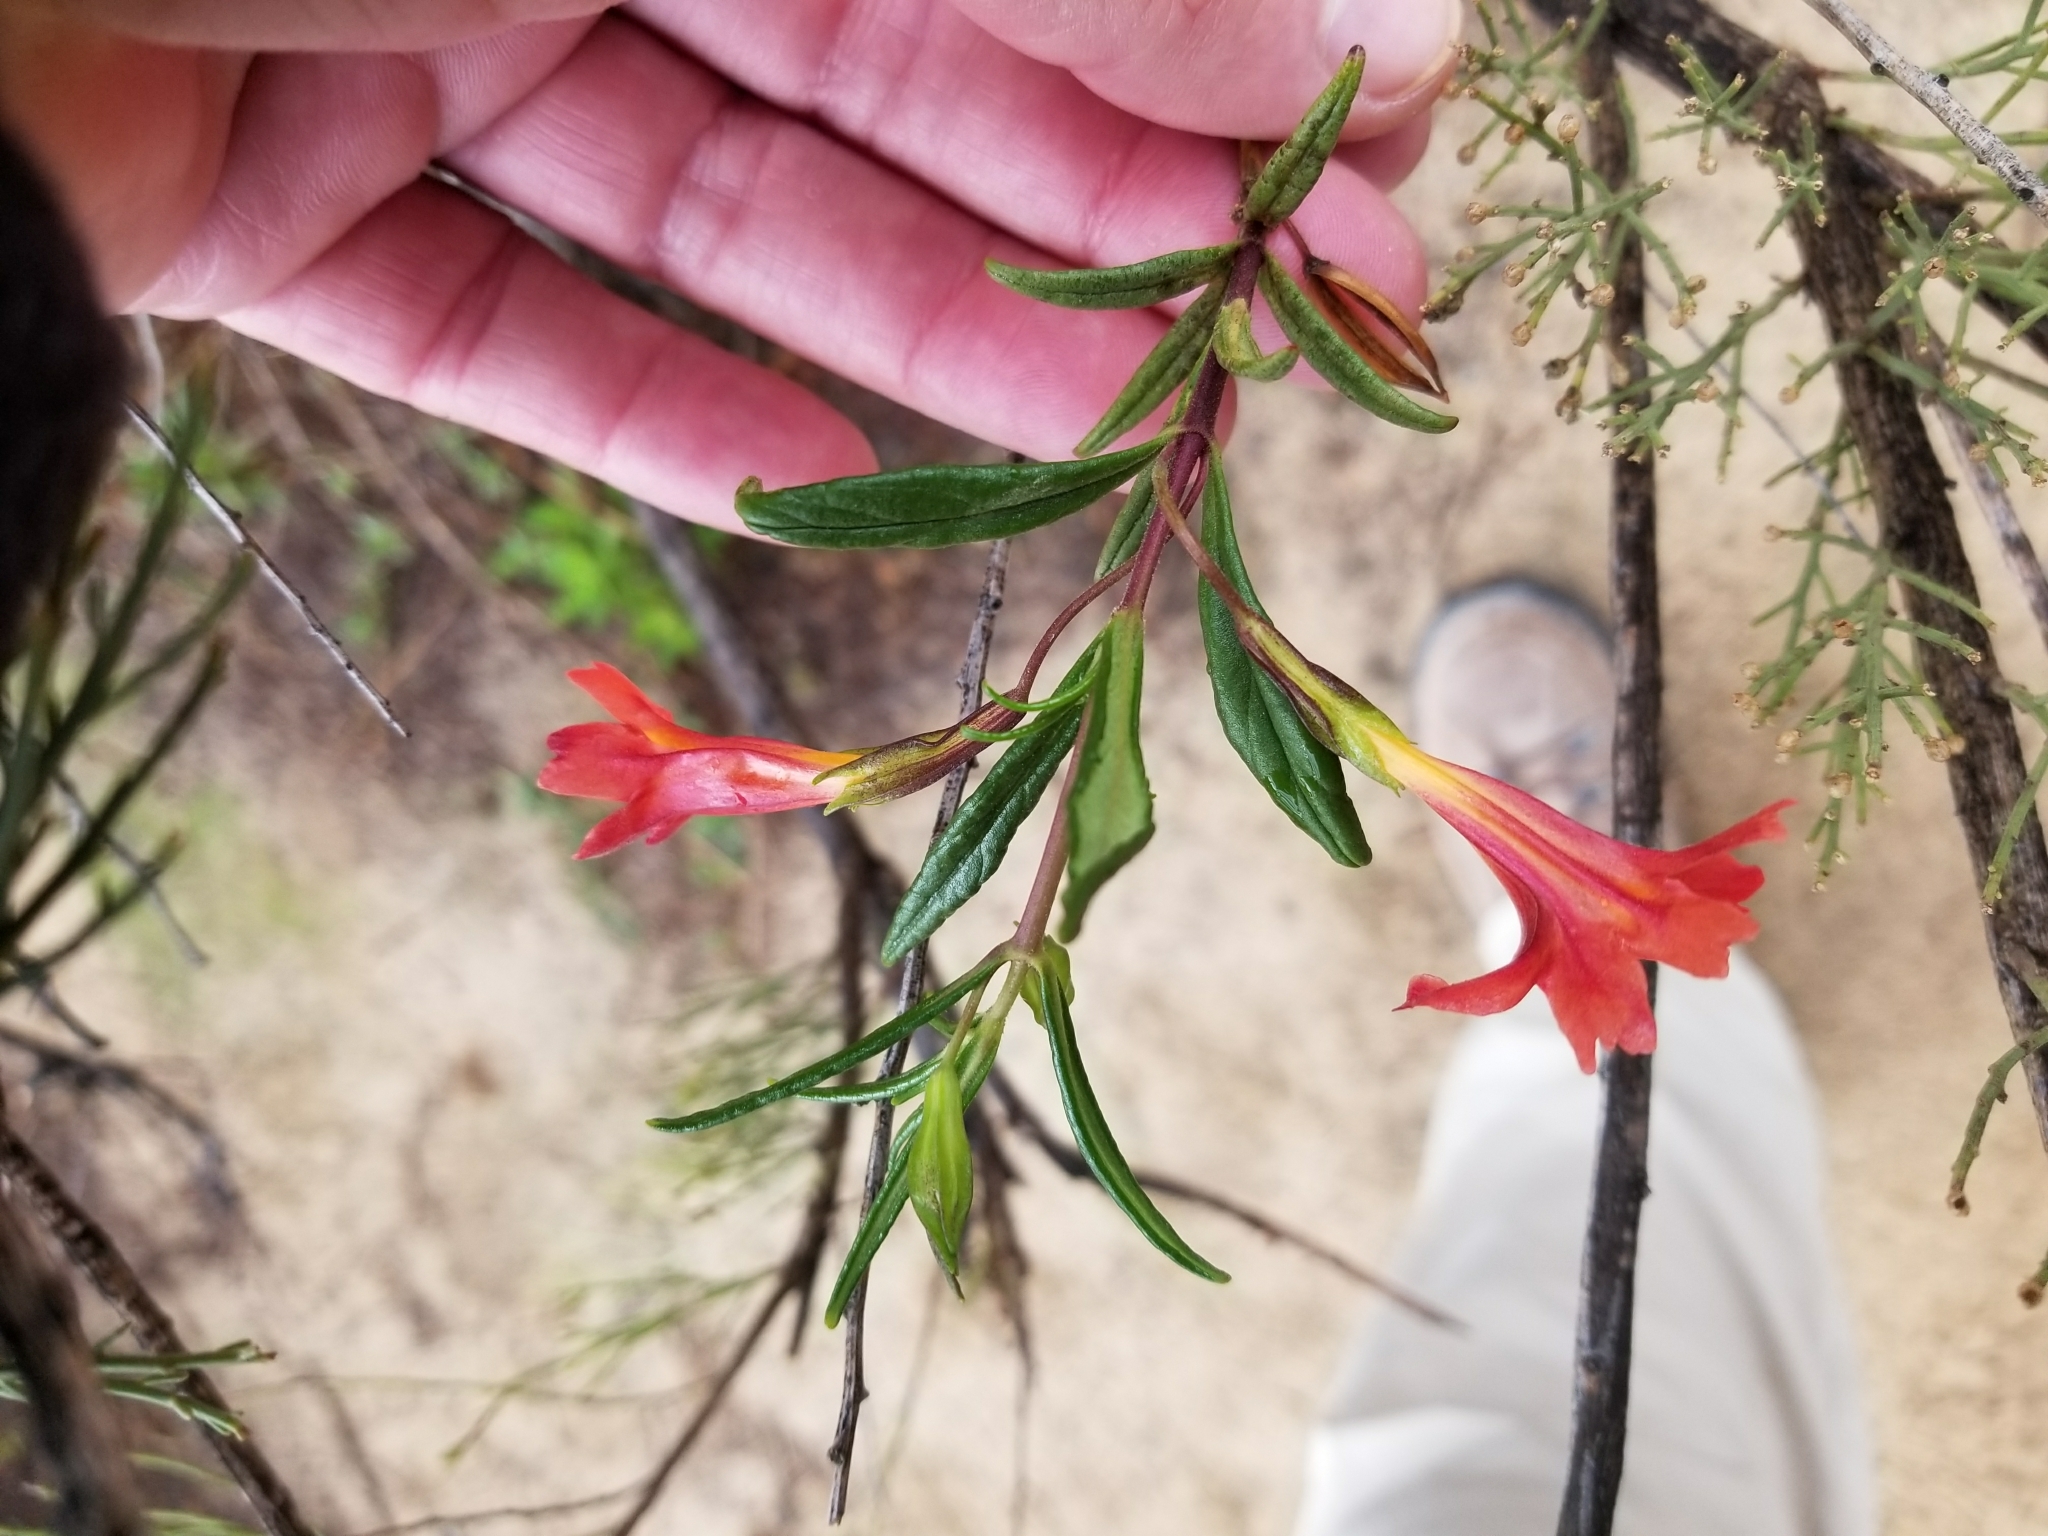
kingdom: Plantae
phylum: Tracheophyta
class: Magnoliopsida
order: Lamiales
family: Phrymaceae
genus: Diplacus
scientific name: Diplacus puniceus
